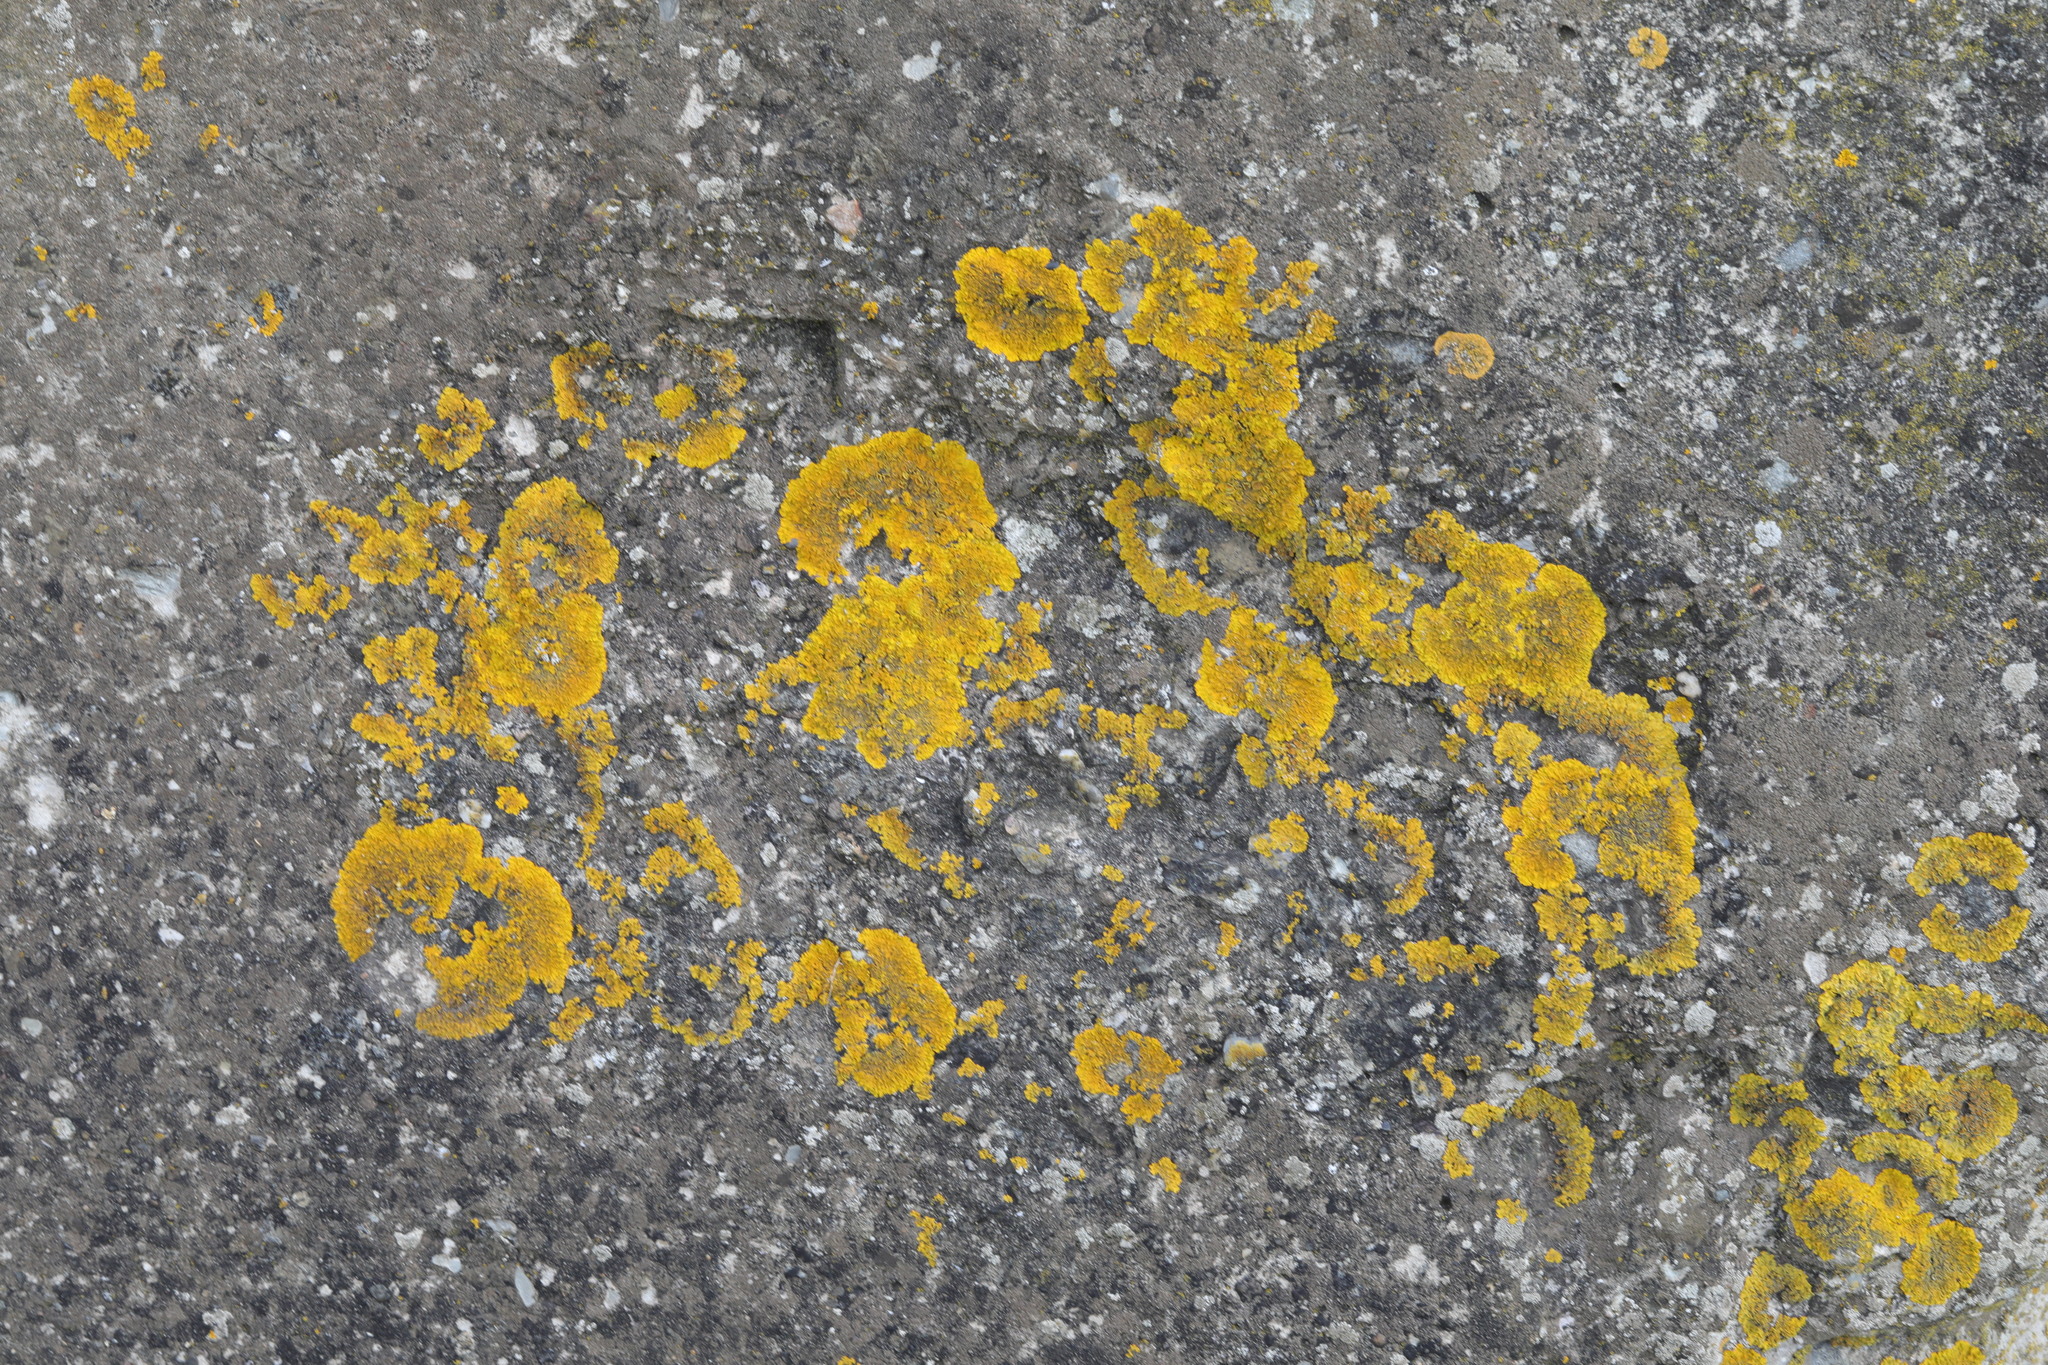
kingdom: Fungi
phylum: Ascomycota
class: Lecanoromycetes
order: Teloschistales
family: Teloschistaceae
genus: Xanthoria
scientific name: Xanthoria parietina
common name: Common orange lichen
